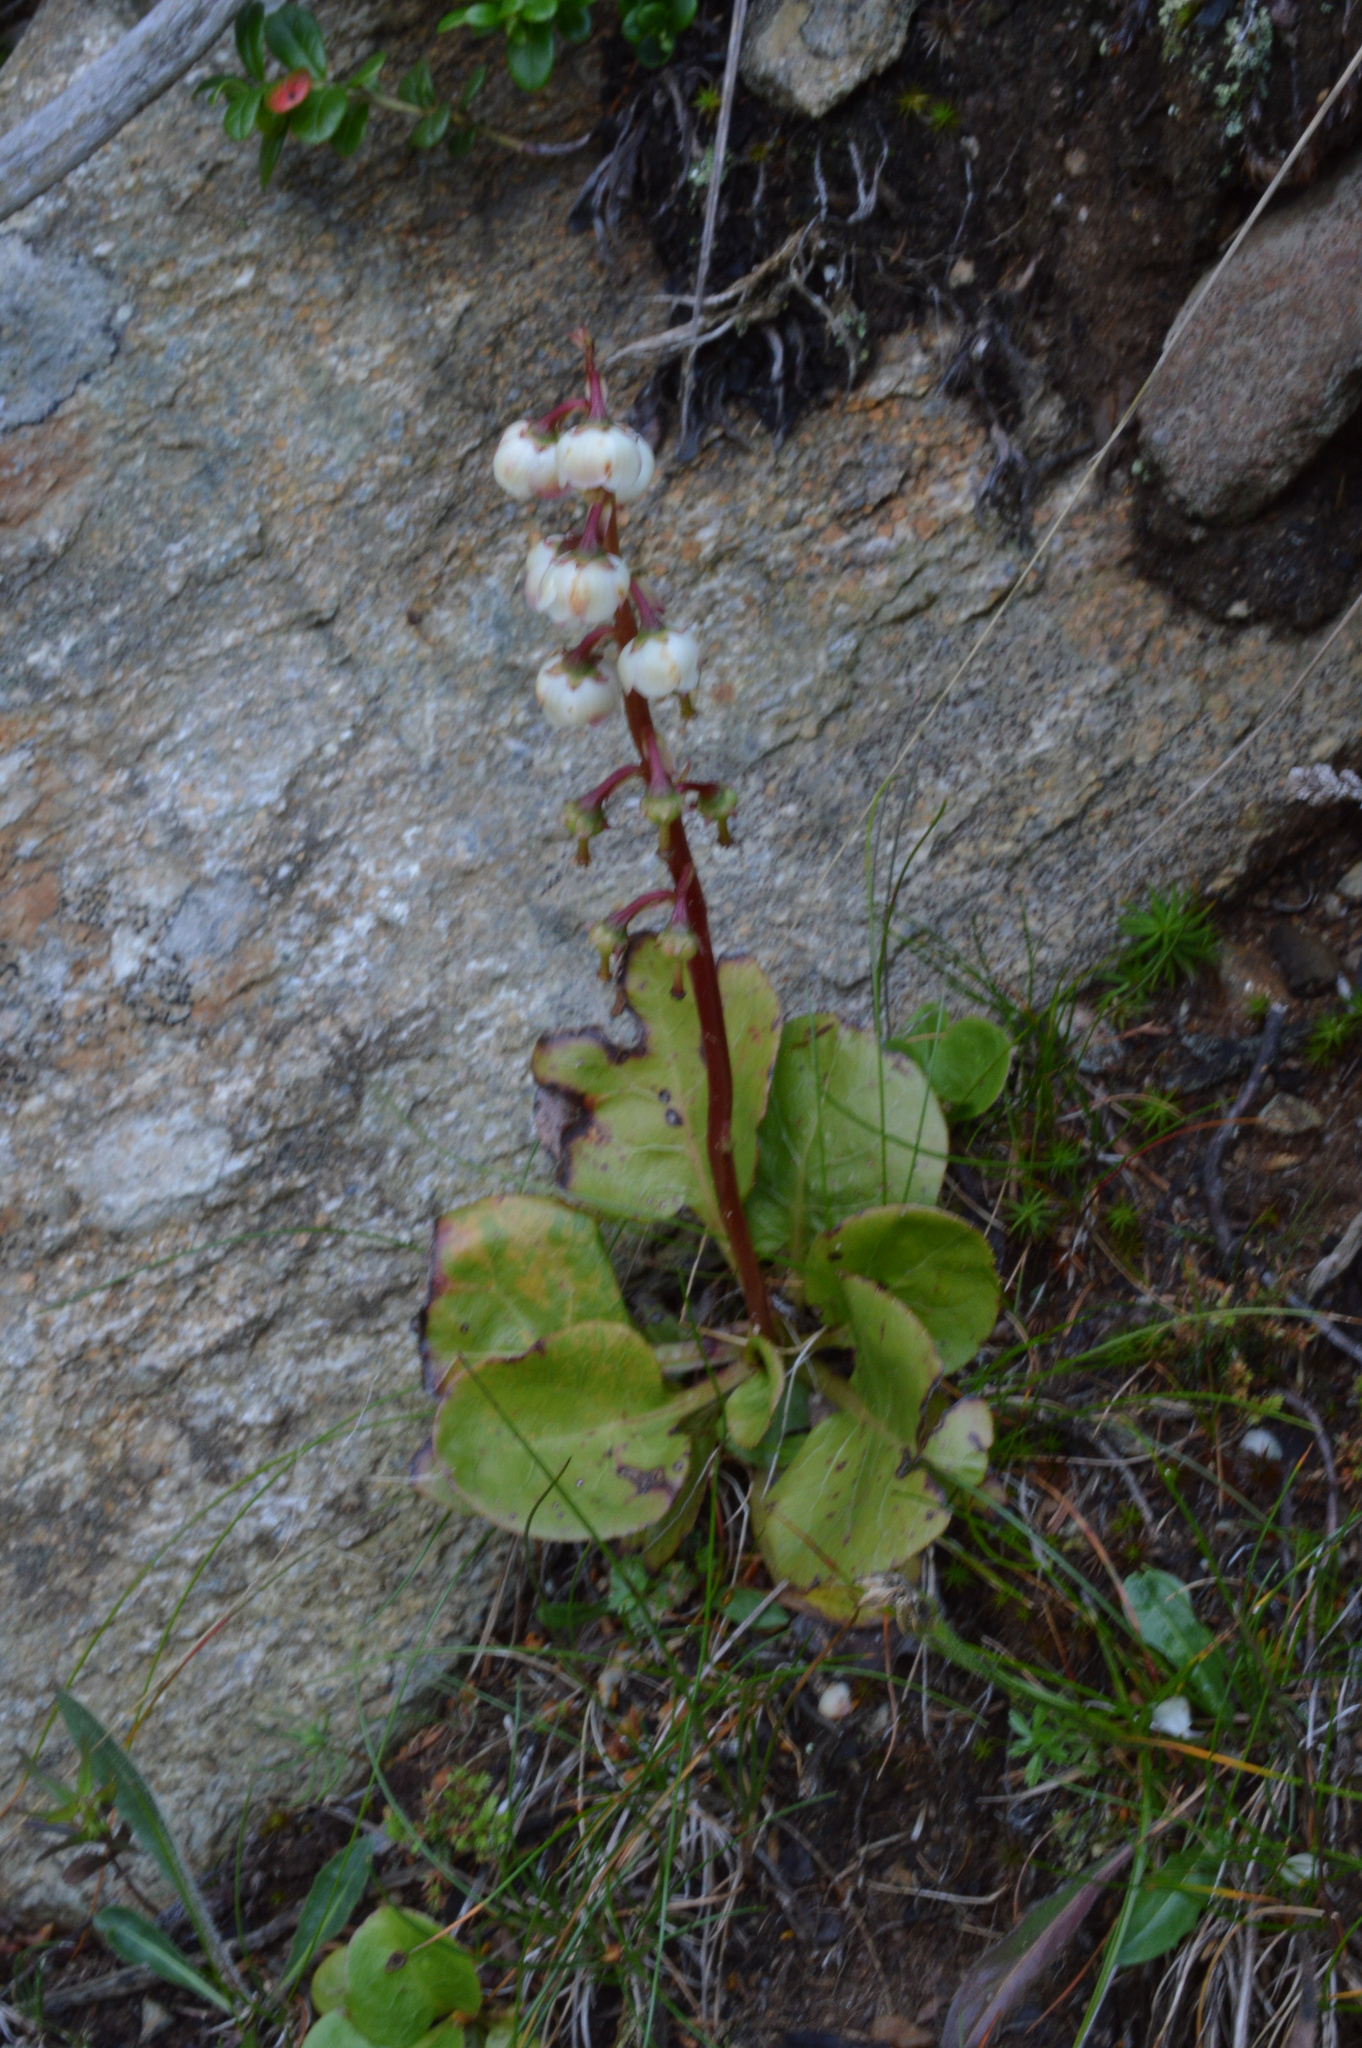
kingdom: Plantae
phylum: Tracheophyta
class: Magnoliopsida
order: Ericales
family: Ericaceae
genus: Pyrola
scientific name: Pyrola minor
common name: Common wintergreen
